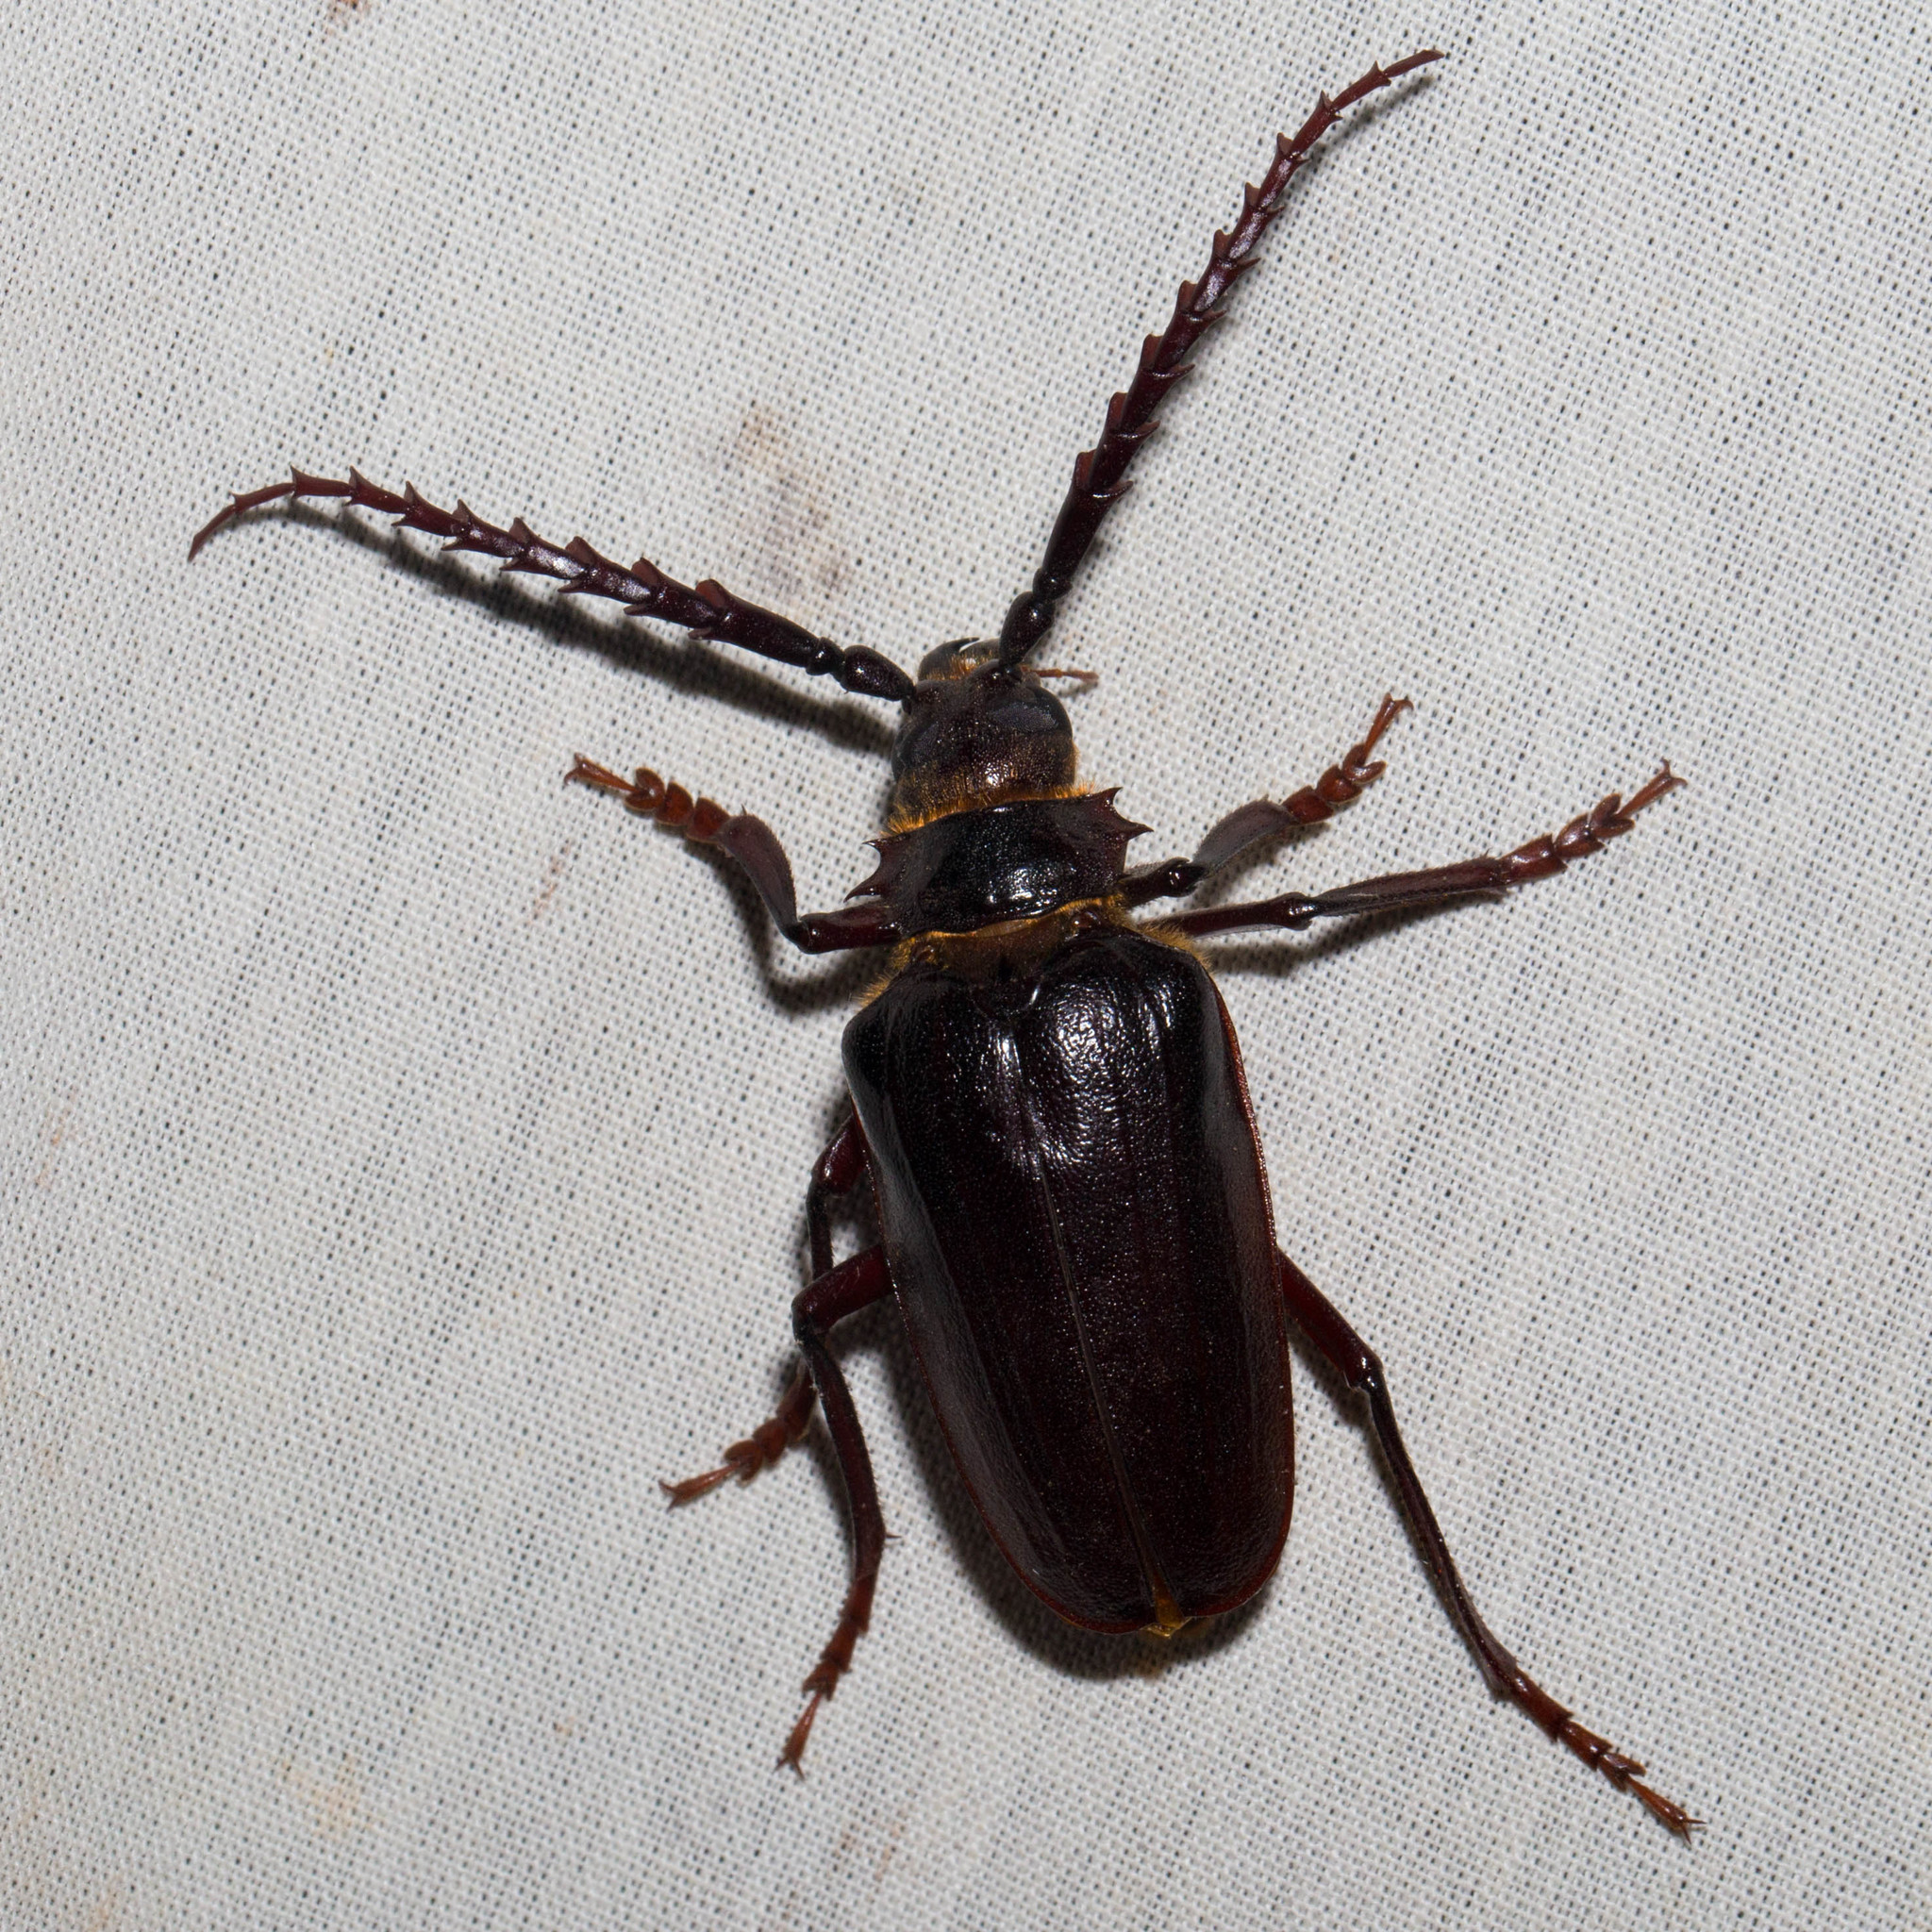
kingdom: Animalia
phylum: Arthropoda
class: Insecta
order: Coleoptera
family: Cerambycidae
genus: Prionus
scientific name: Prionus californicus
